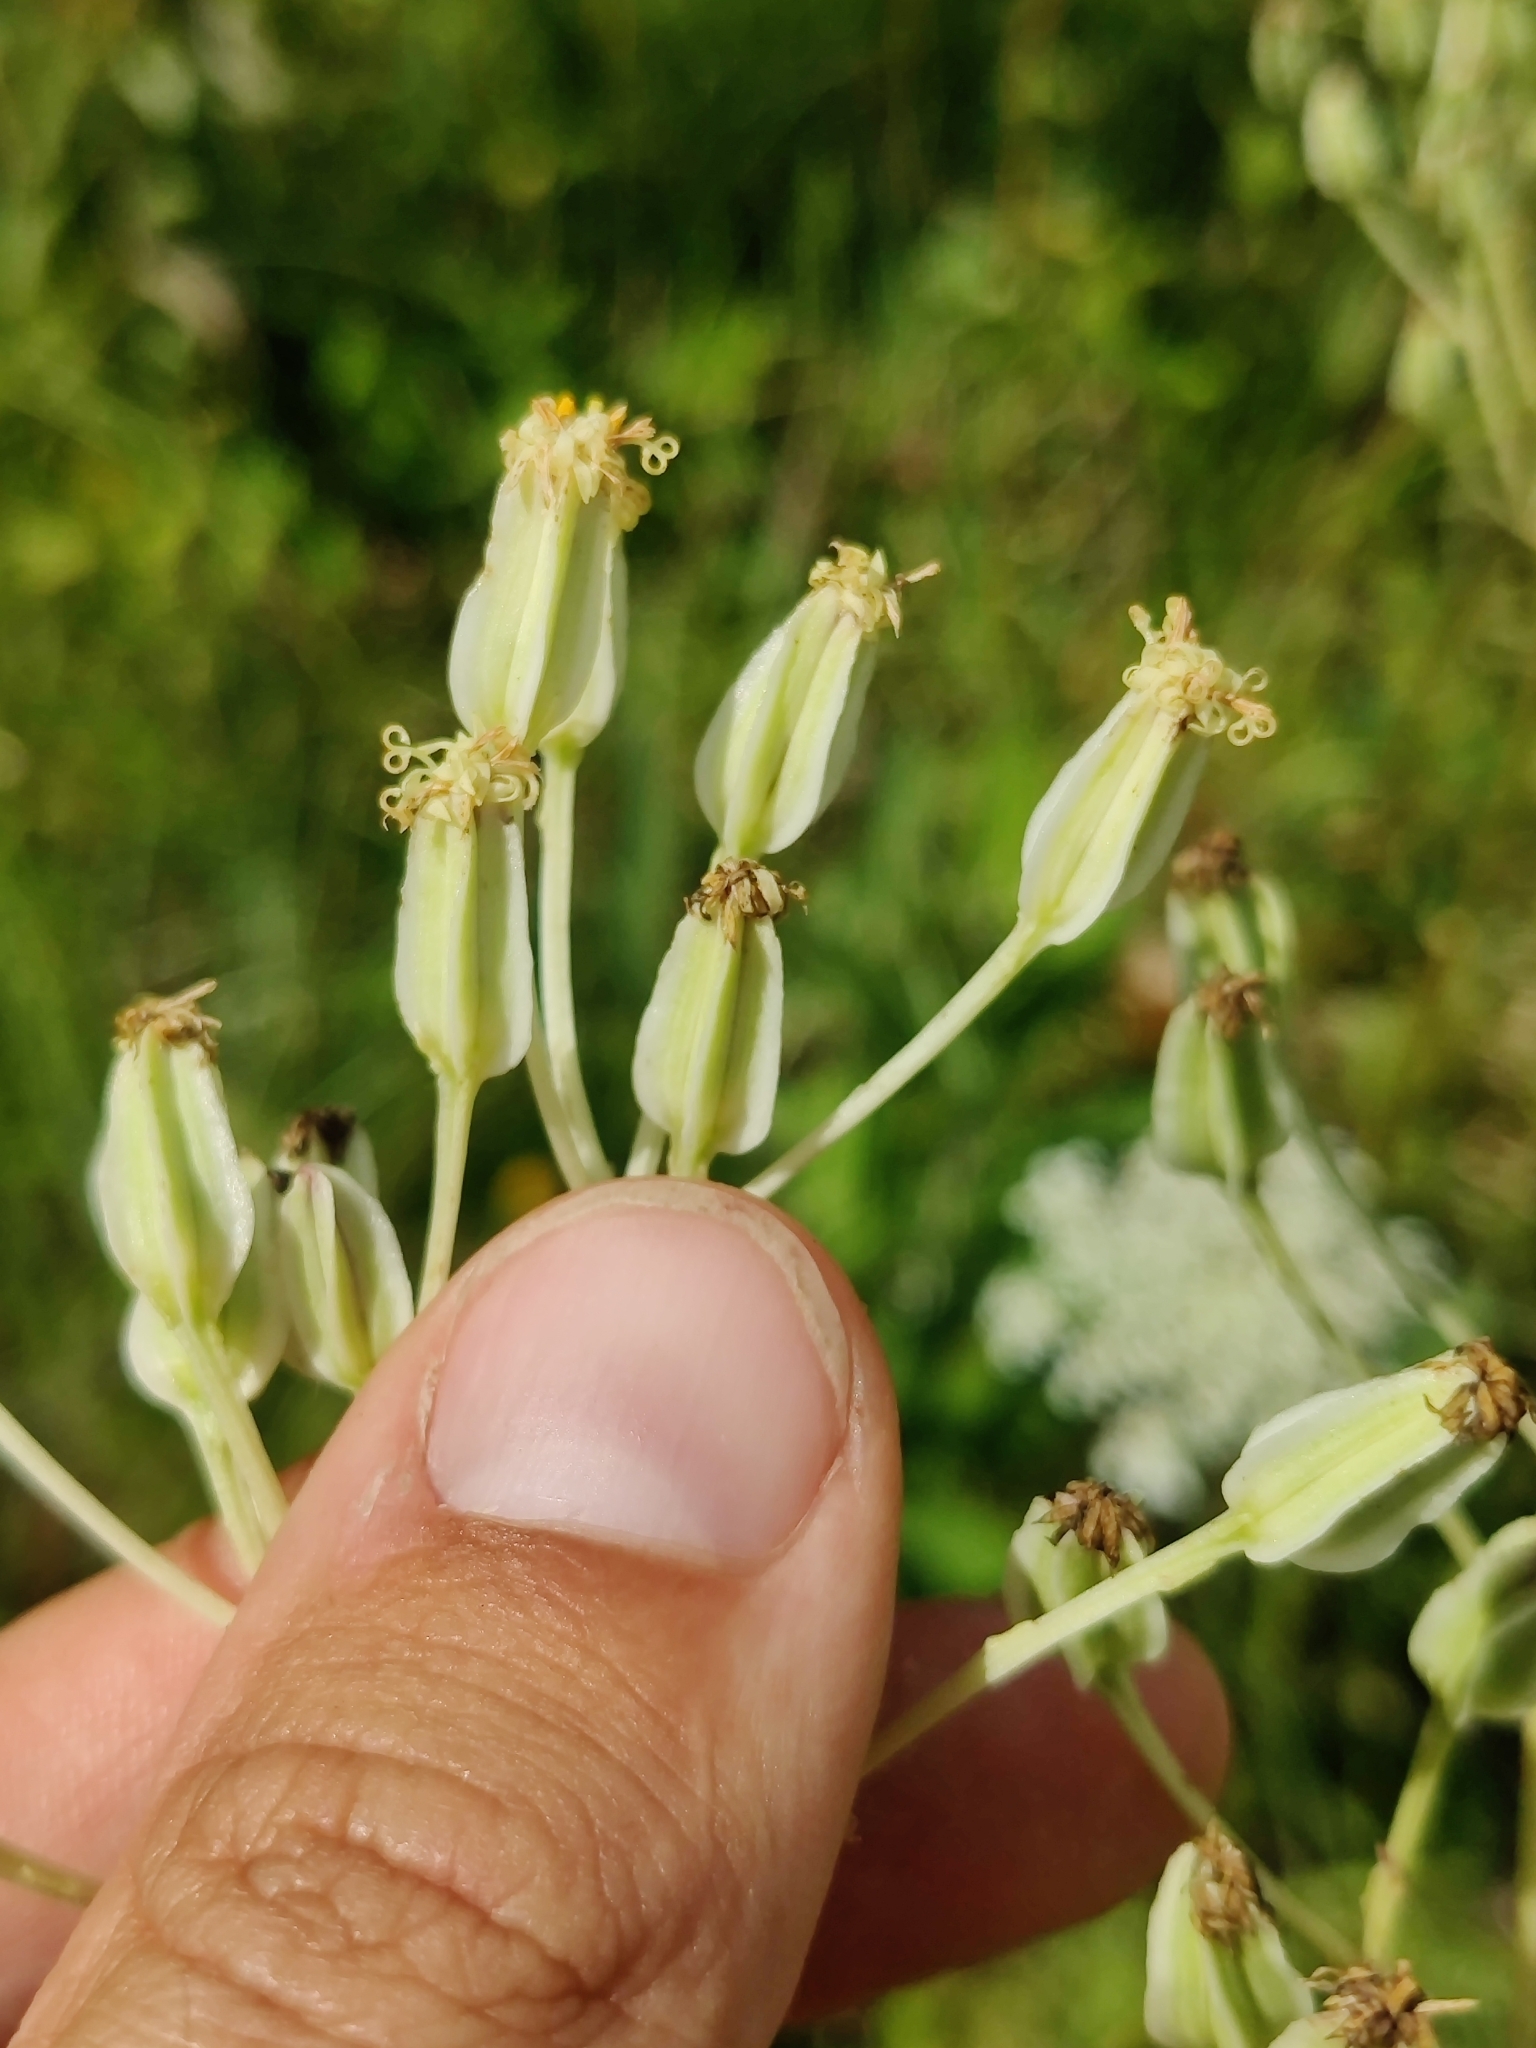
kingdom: Plantae
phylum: Tracheophyta
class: Magnoliopsida
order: Asterales
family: Asteraceae
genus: Arnoglossum
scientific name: Arnoglossum plantagineum
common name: Groove-stemmed indian-plantain
